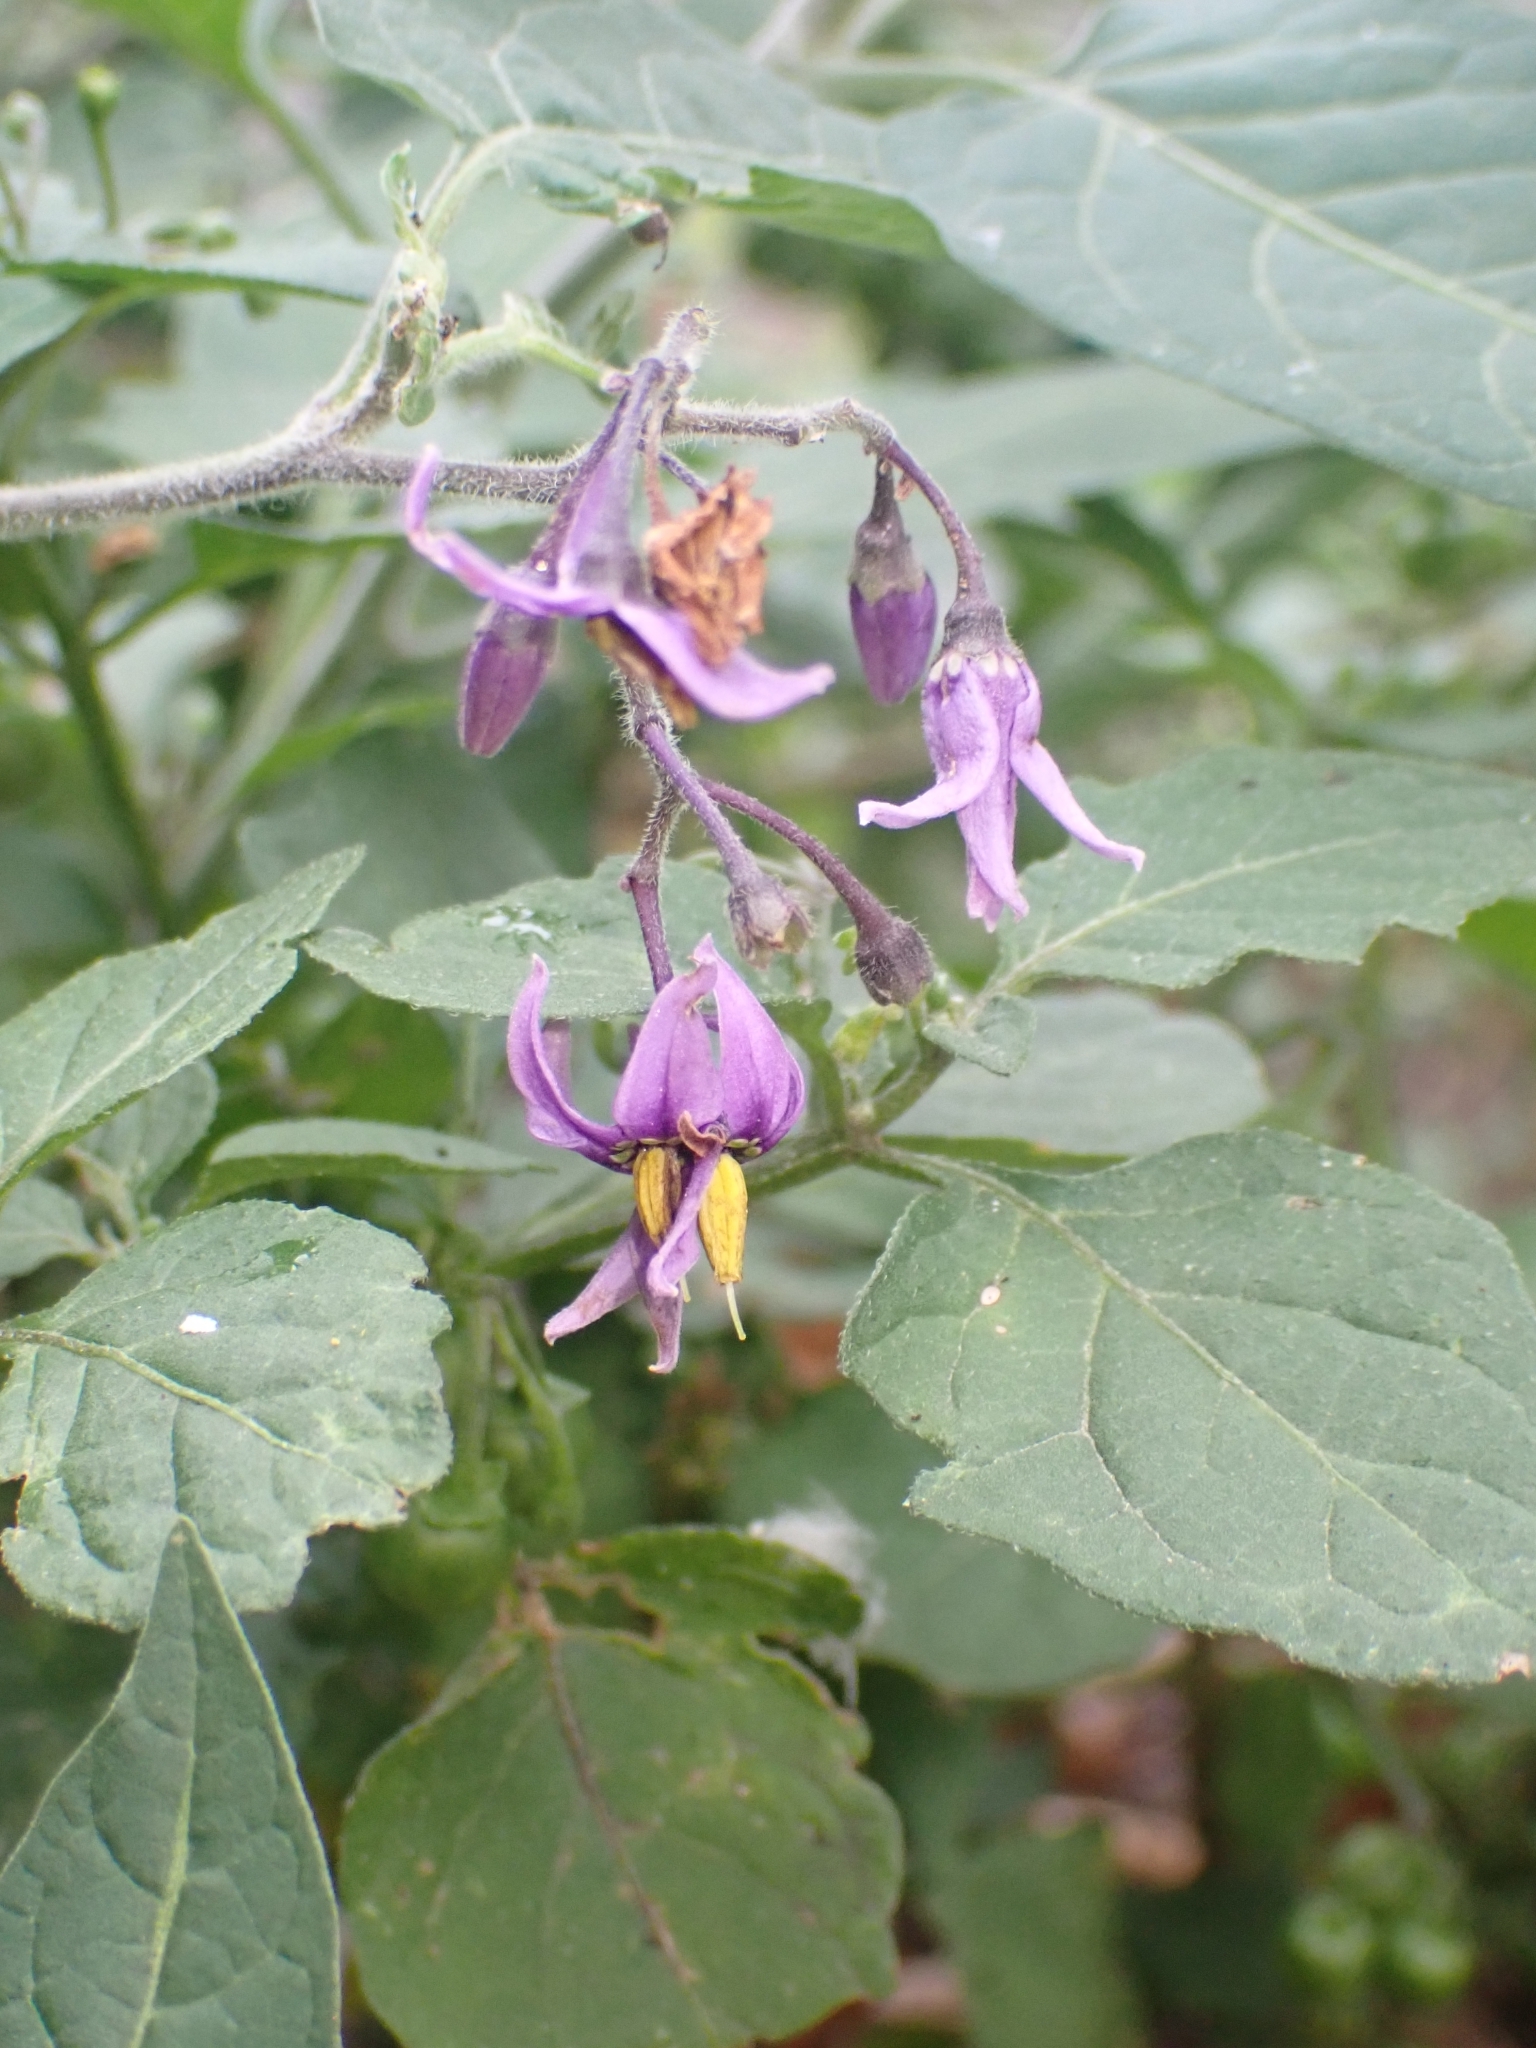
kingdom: Plantae
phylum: Tracheophyta
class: Magnoliopsida
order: Solanales
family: Solanaceae
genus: Solanum
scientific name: Solanum dulcamara
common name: Climbing nightshade
